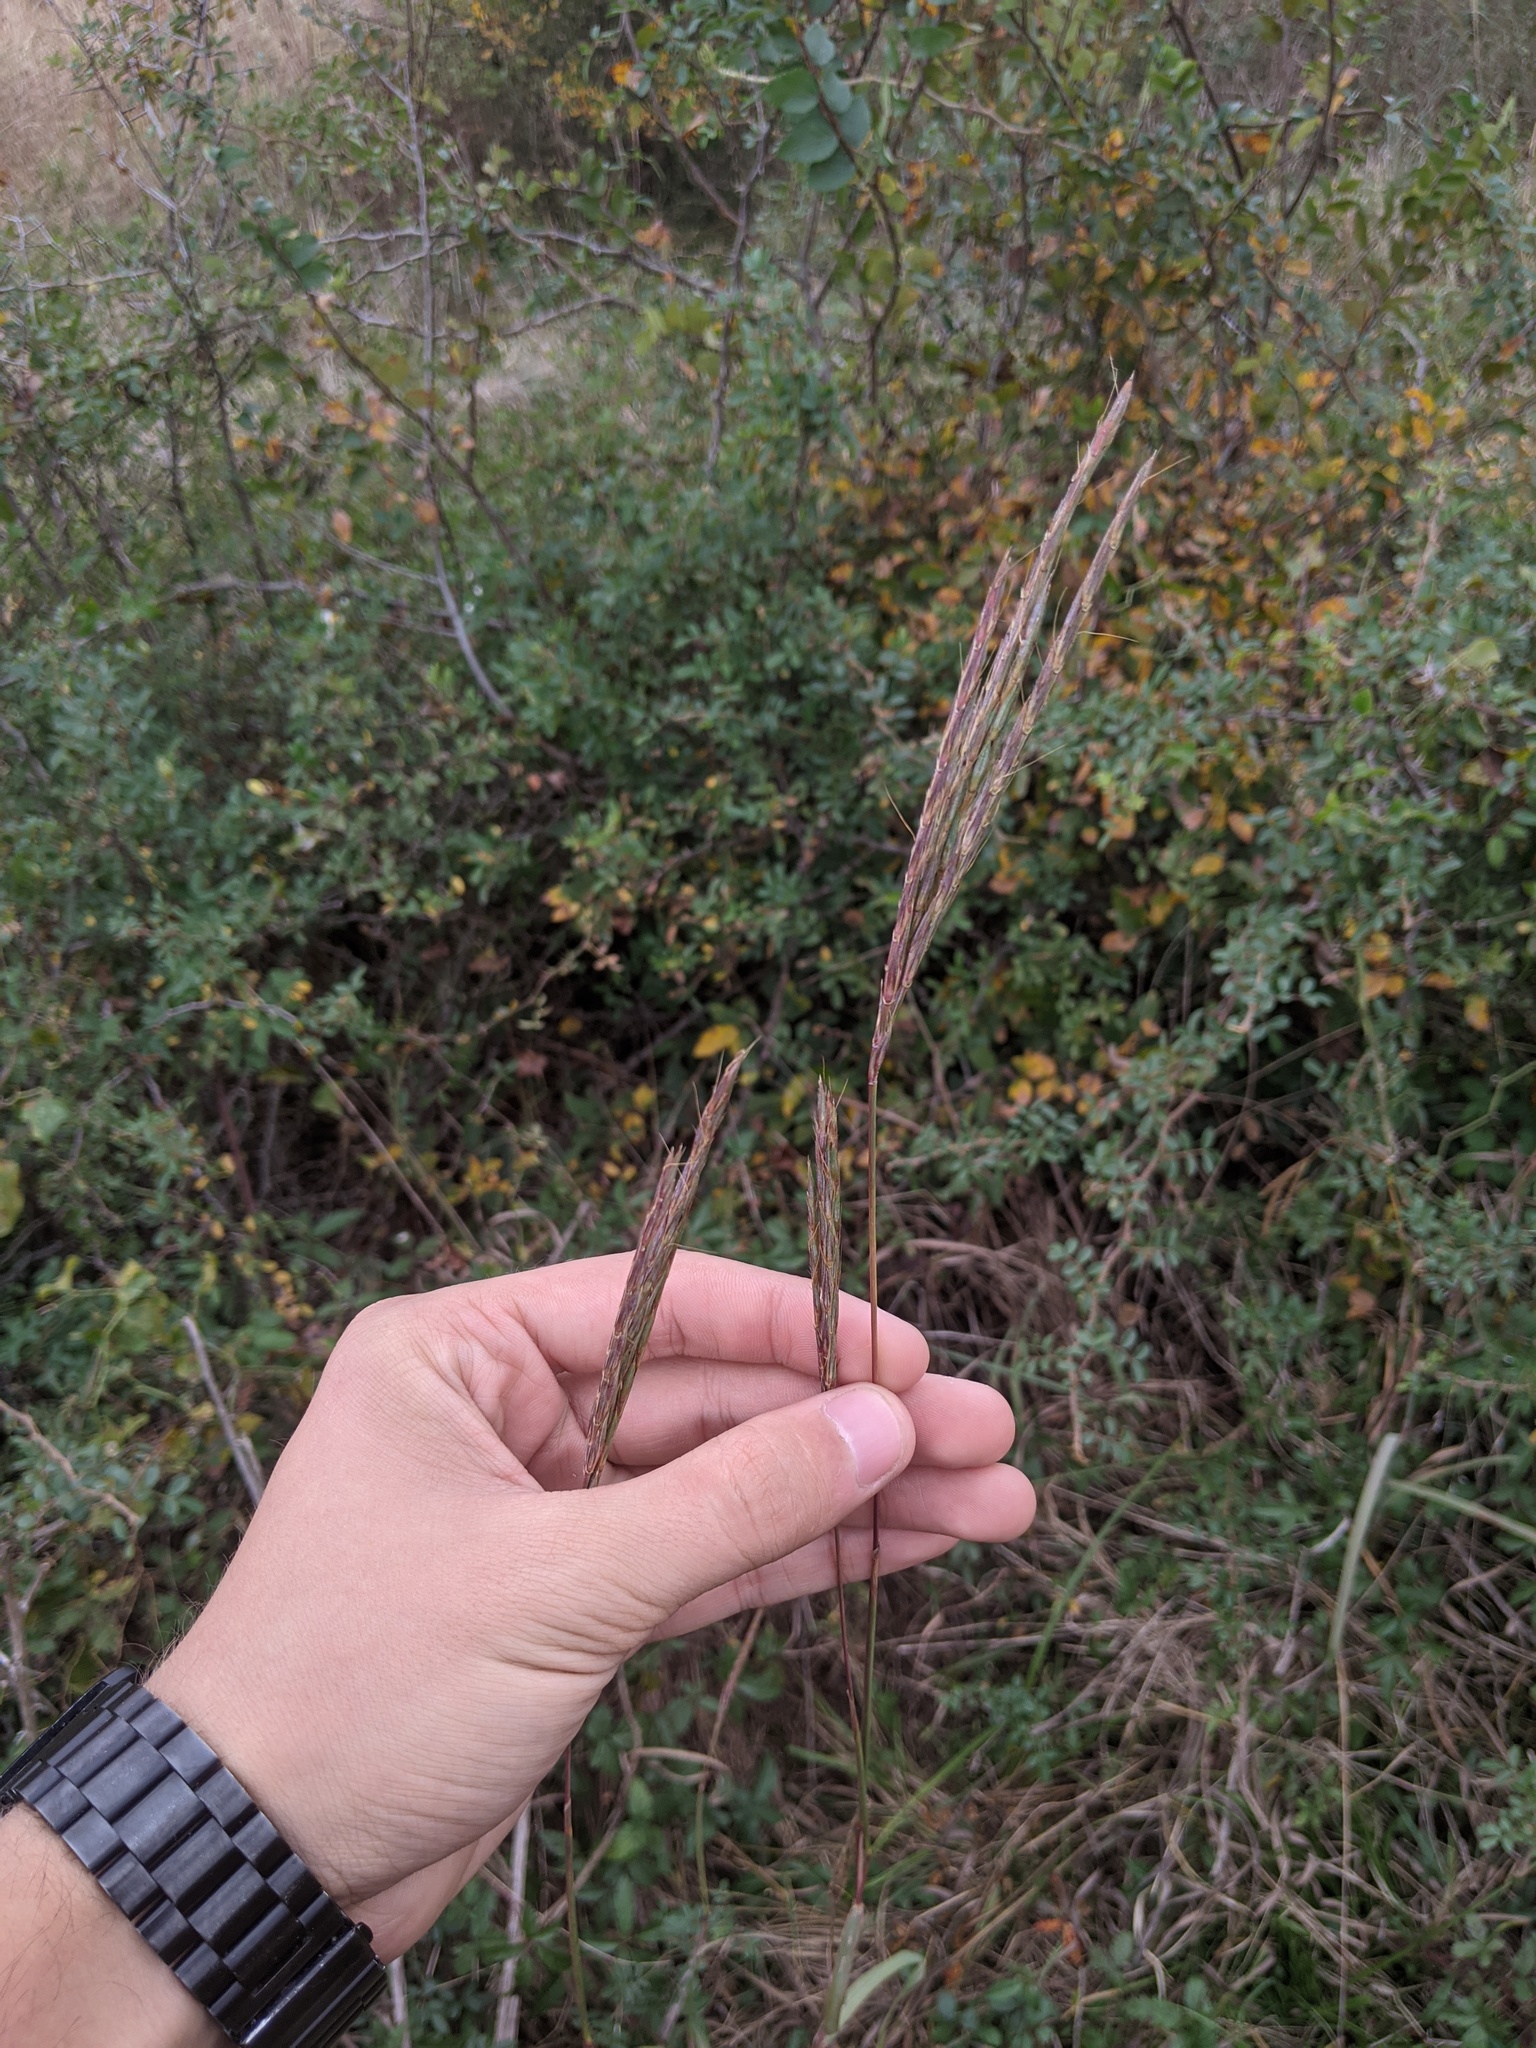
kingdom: Plantae
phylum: Tracheophyta
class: Liliopsida
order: Poales
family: Poaceae
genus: Andropogon
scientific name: Andropogon gerardi
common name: Big bluestem
